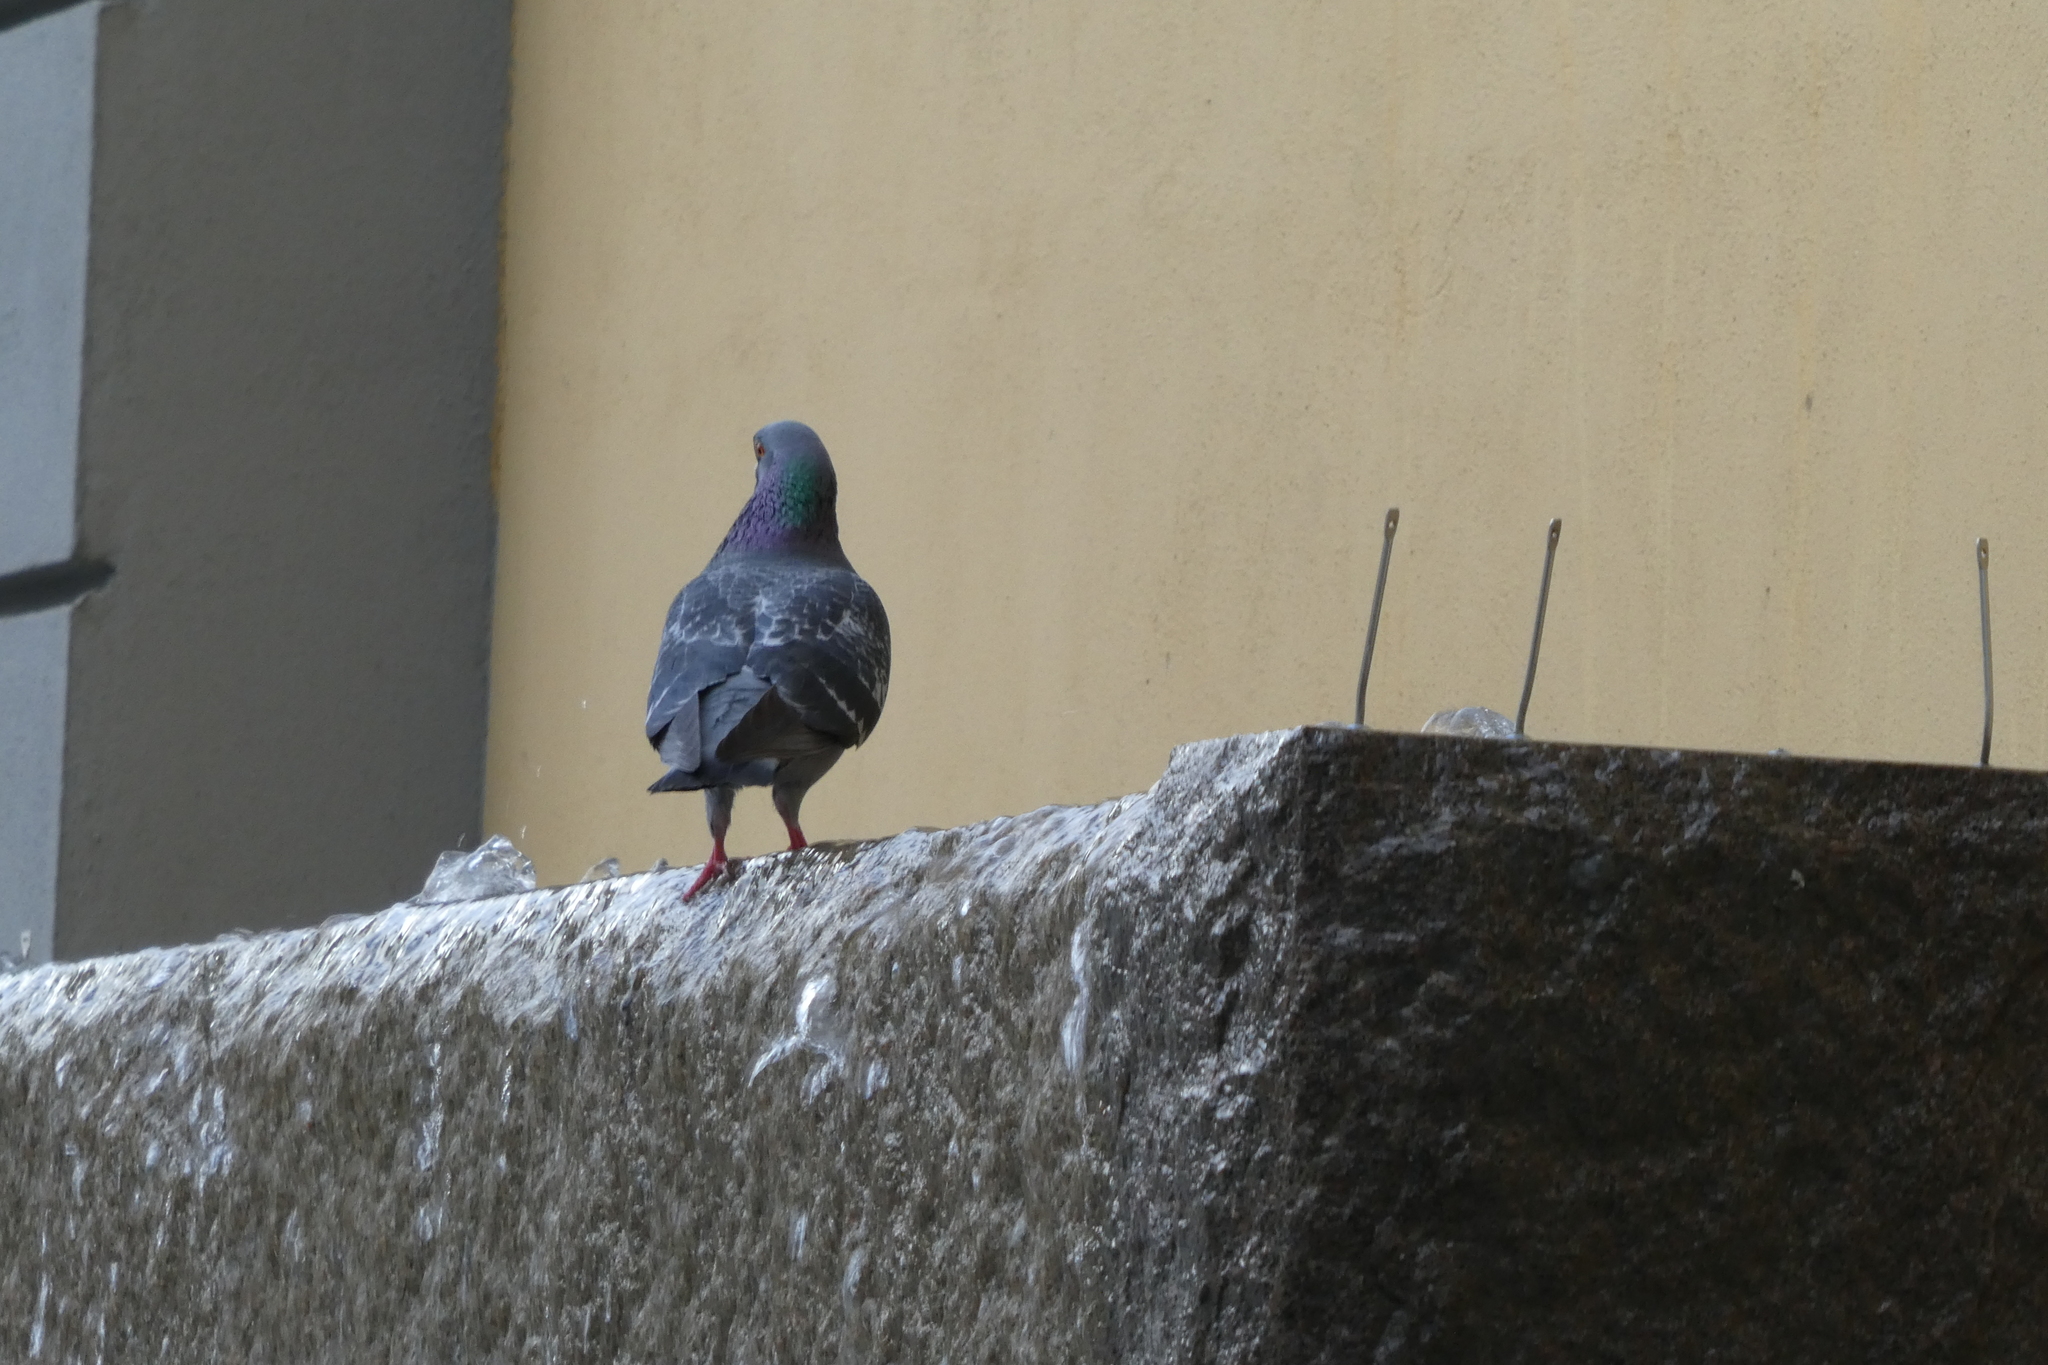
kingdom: Animalia
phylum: Chordata
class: Aves
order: Columbiformes
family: Columbidae
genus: Columba
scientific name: Columba livia
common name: Rock pigeon
